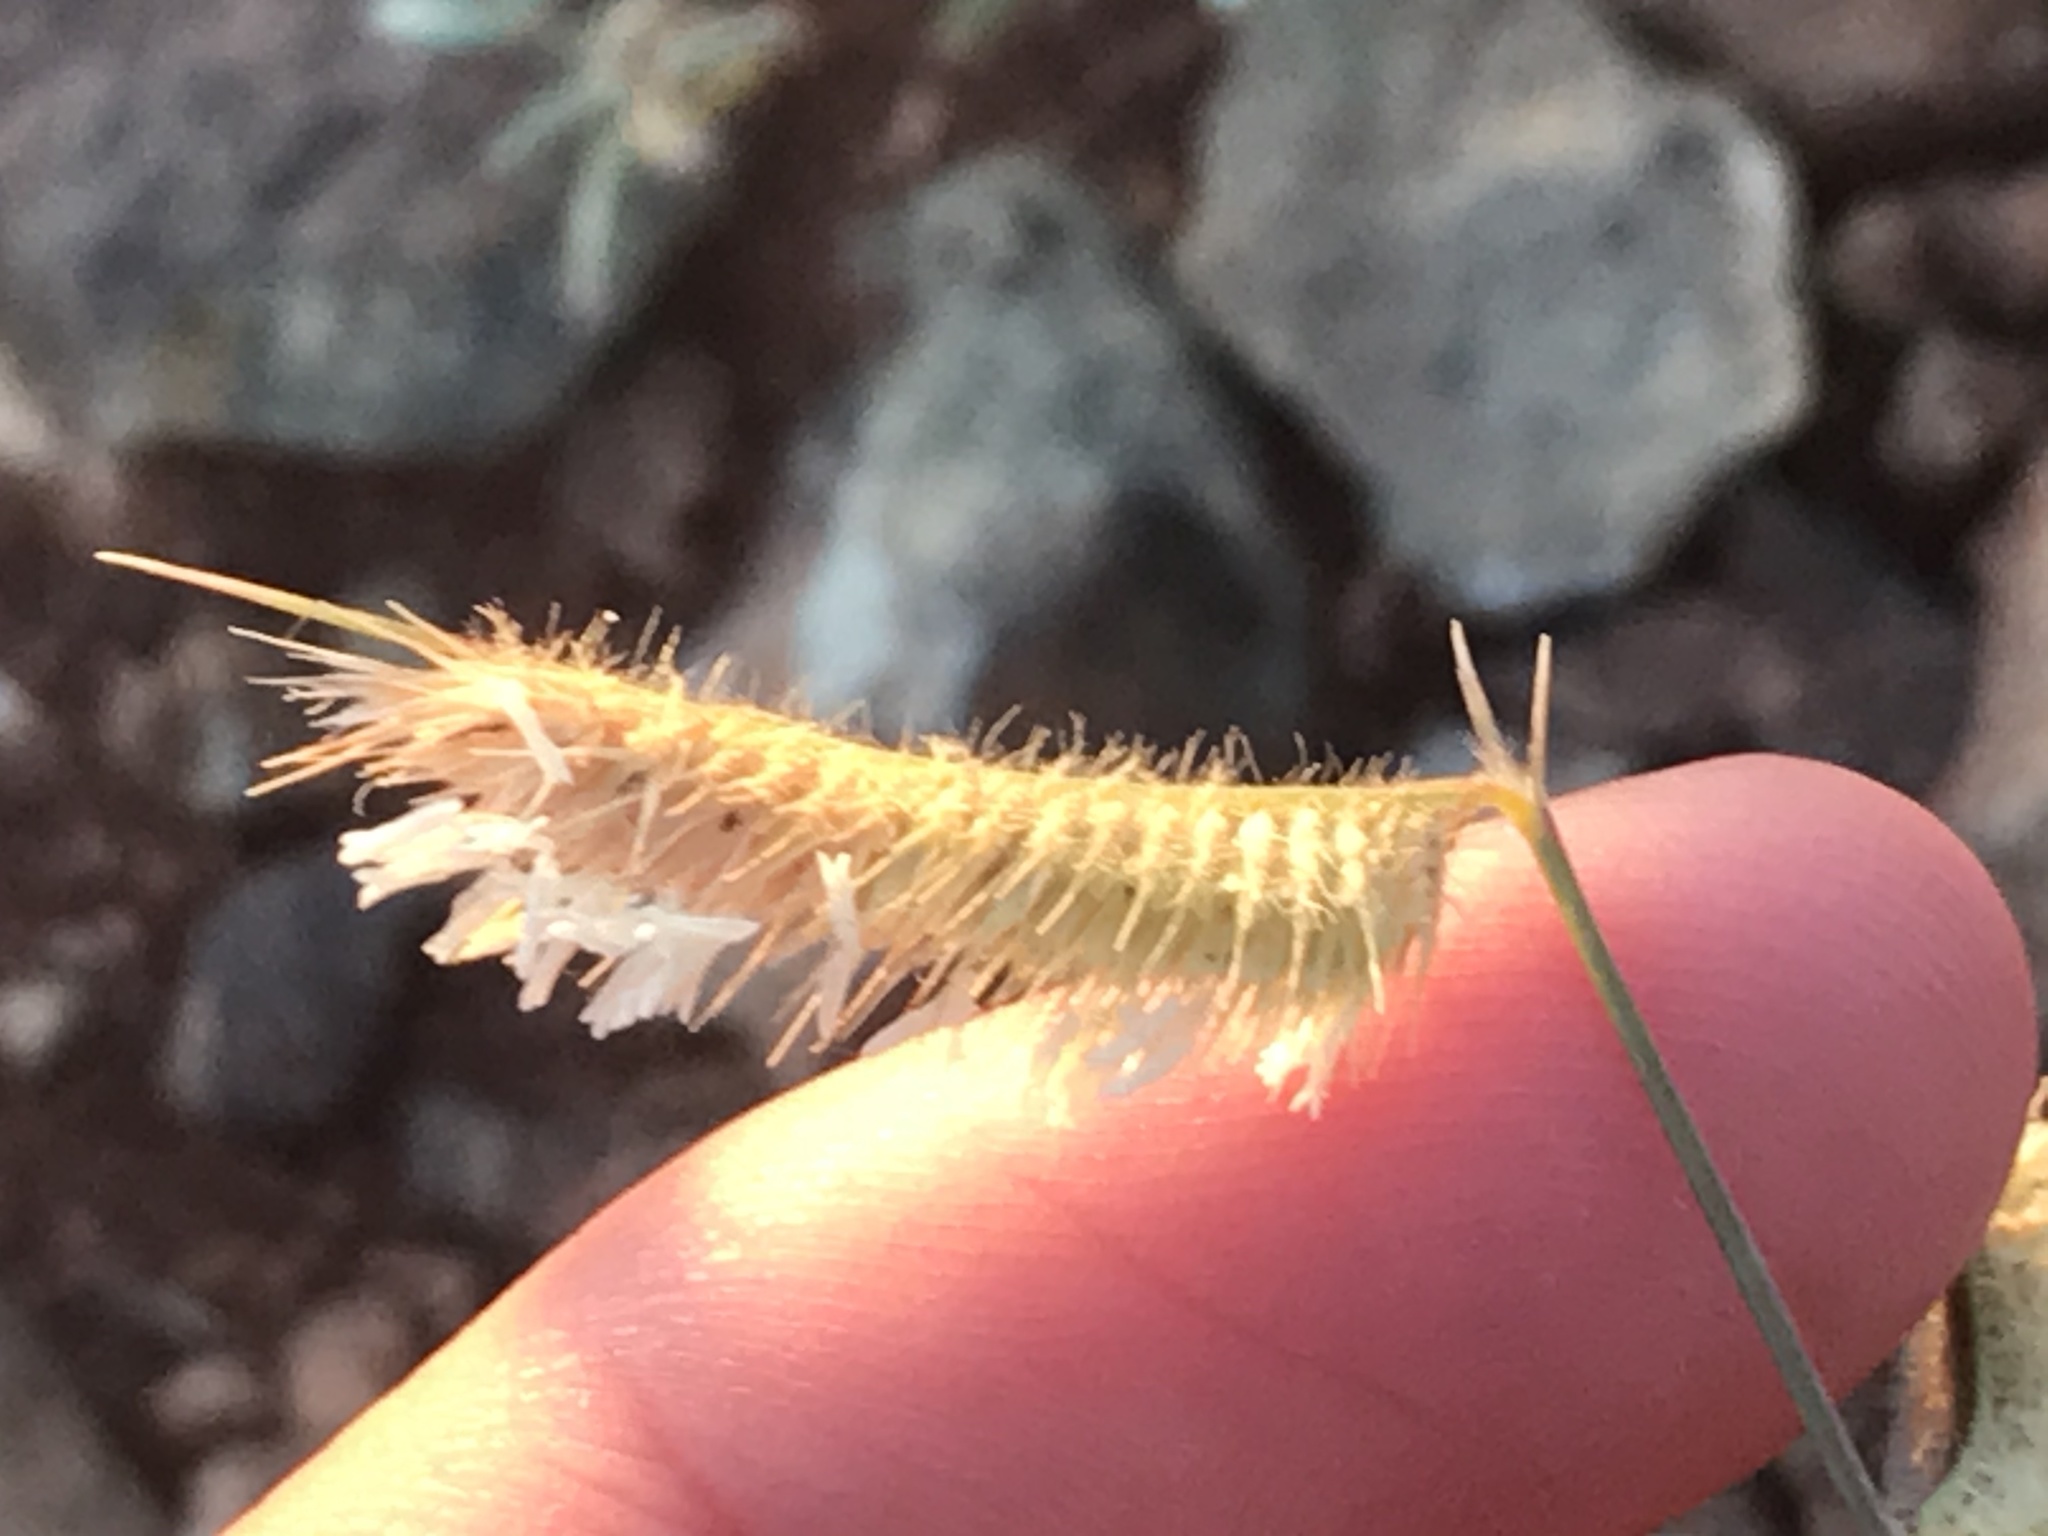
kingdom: Plantae
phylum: Tracheophyta
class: Liliopsida
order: Poales
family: Poaceae
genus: Bouteloua
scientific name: Bouteloua hirsuta
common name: Hairy grama
